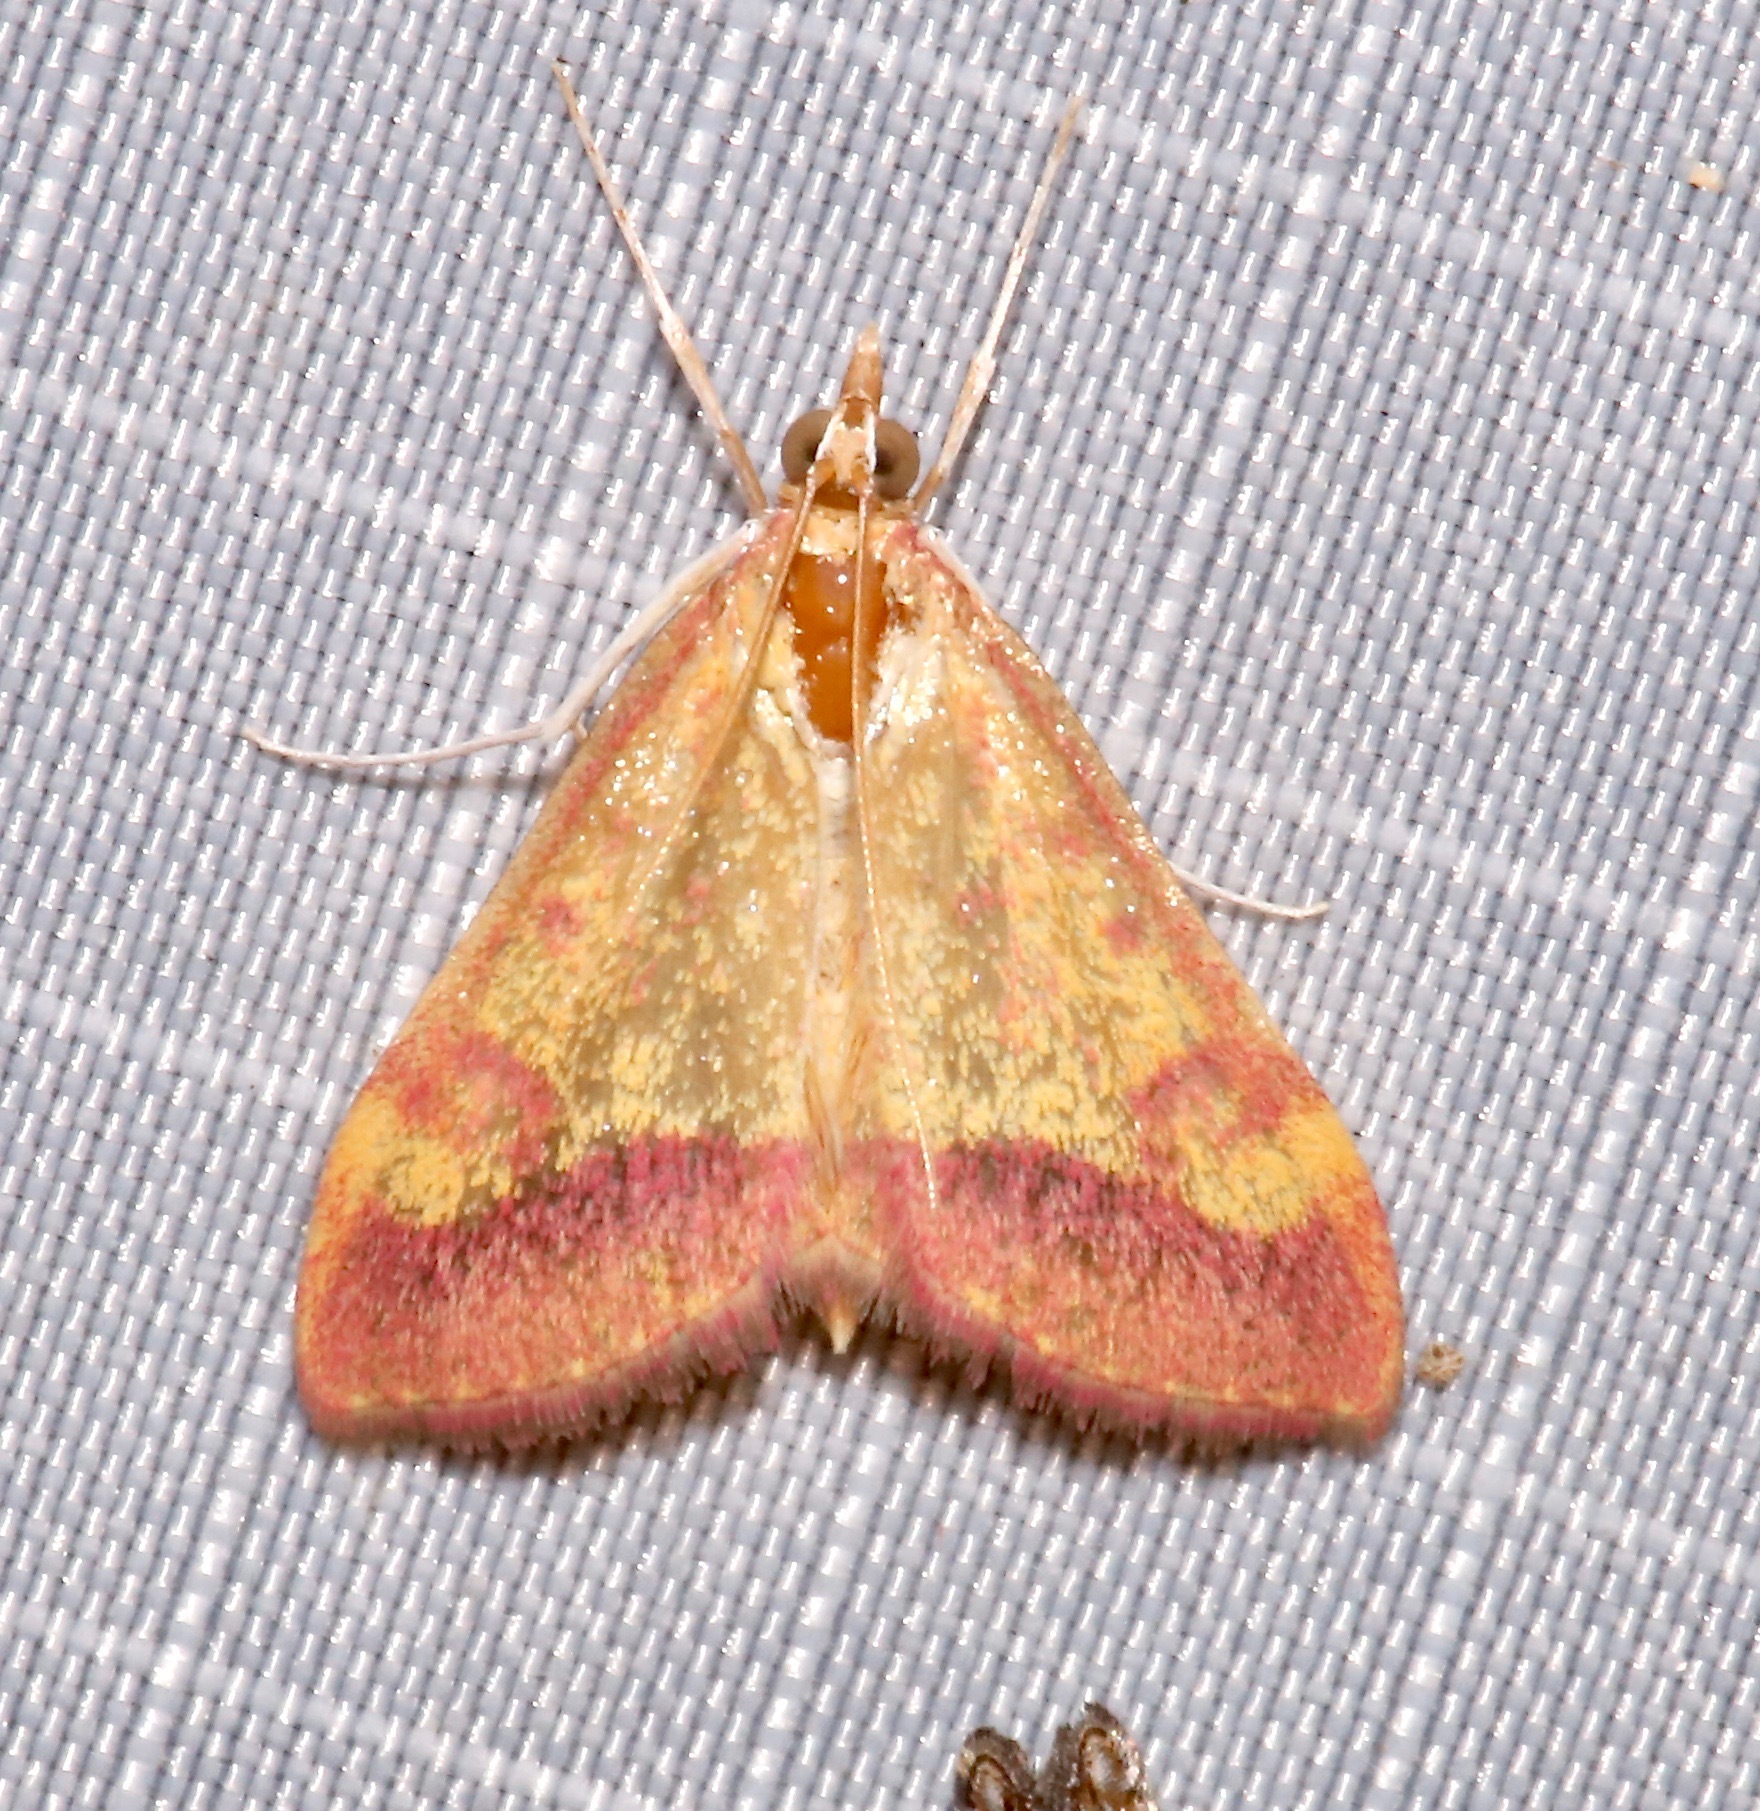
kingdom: Animalia
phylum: Arthropoda
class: Insecta
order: Lepidoptera
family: Crambidae
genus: Pyrausta
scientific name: Pyrausta arizonicalis
